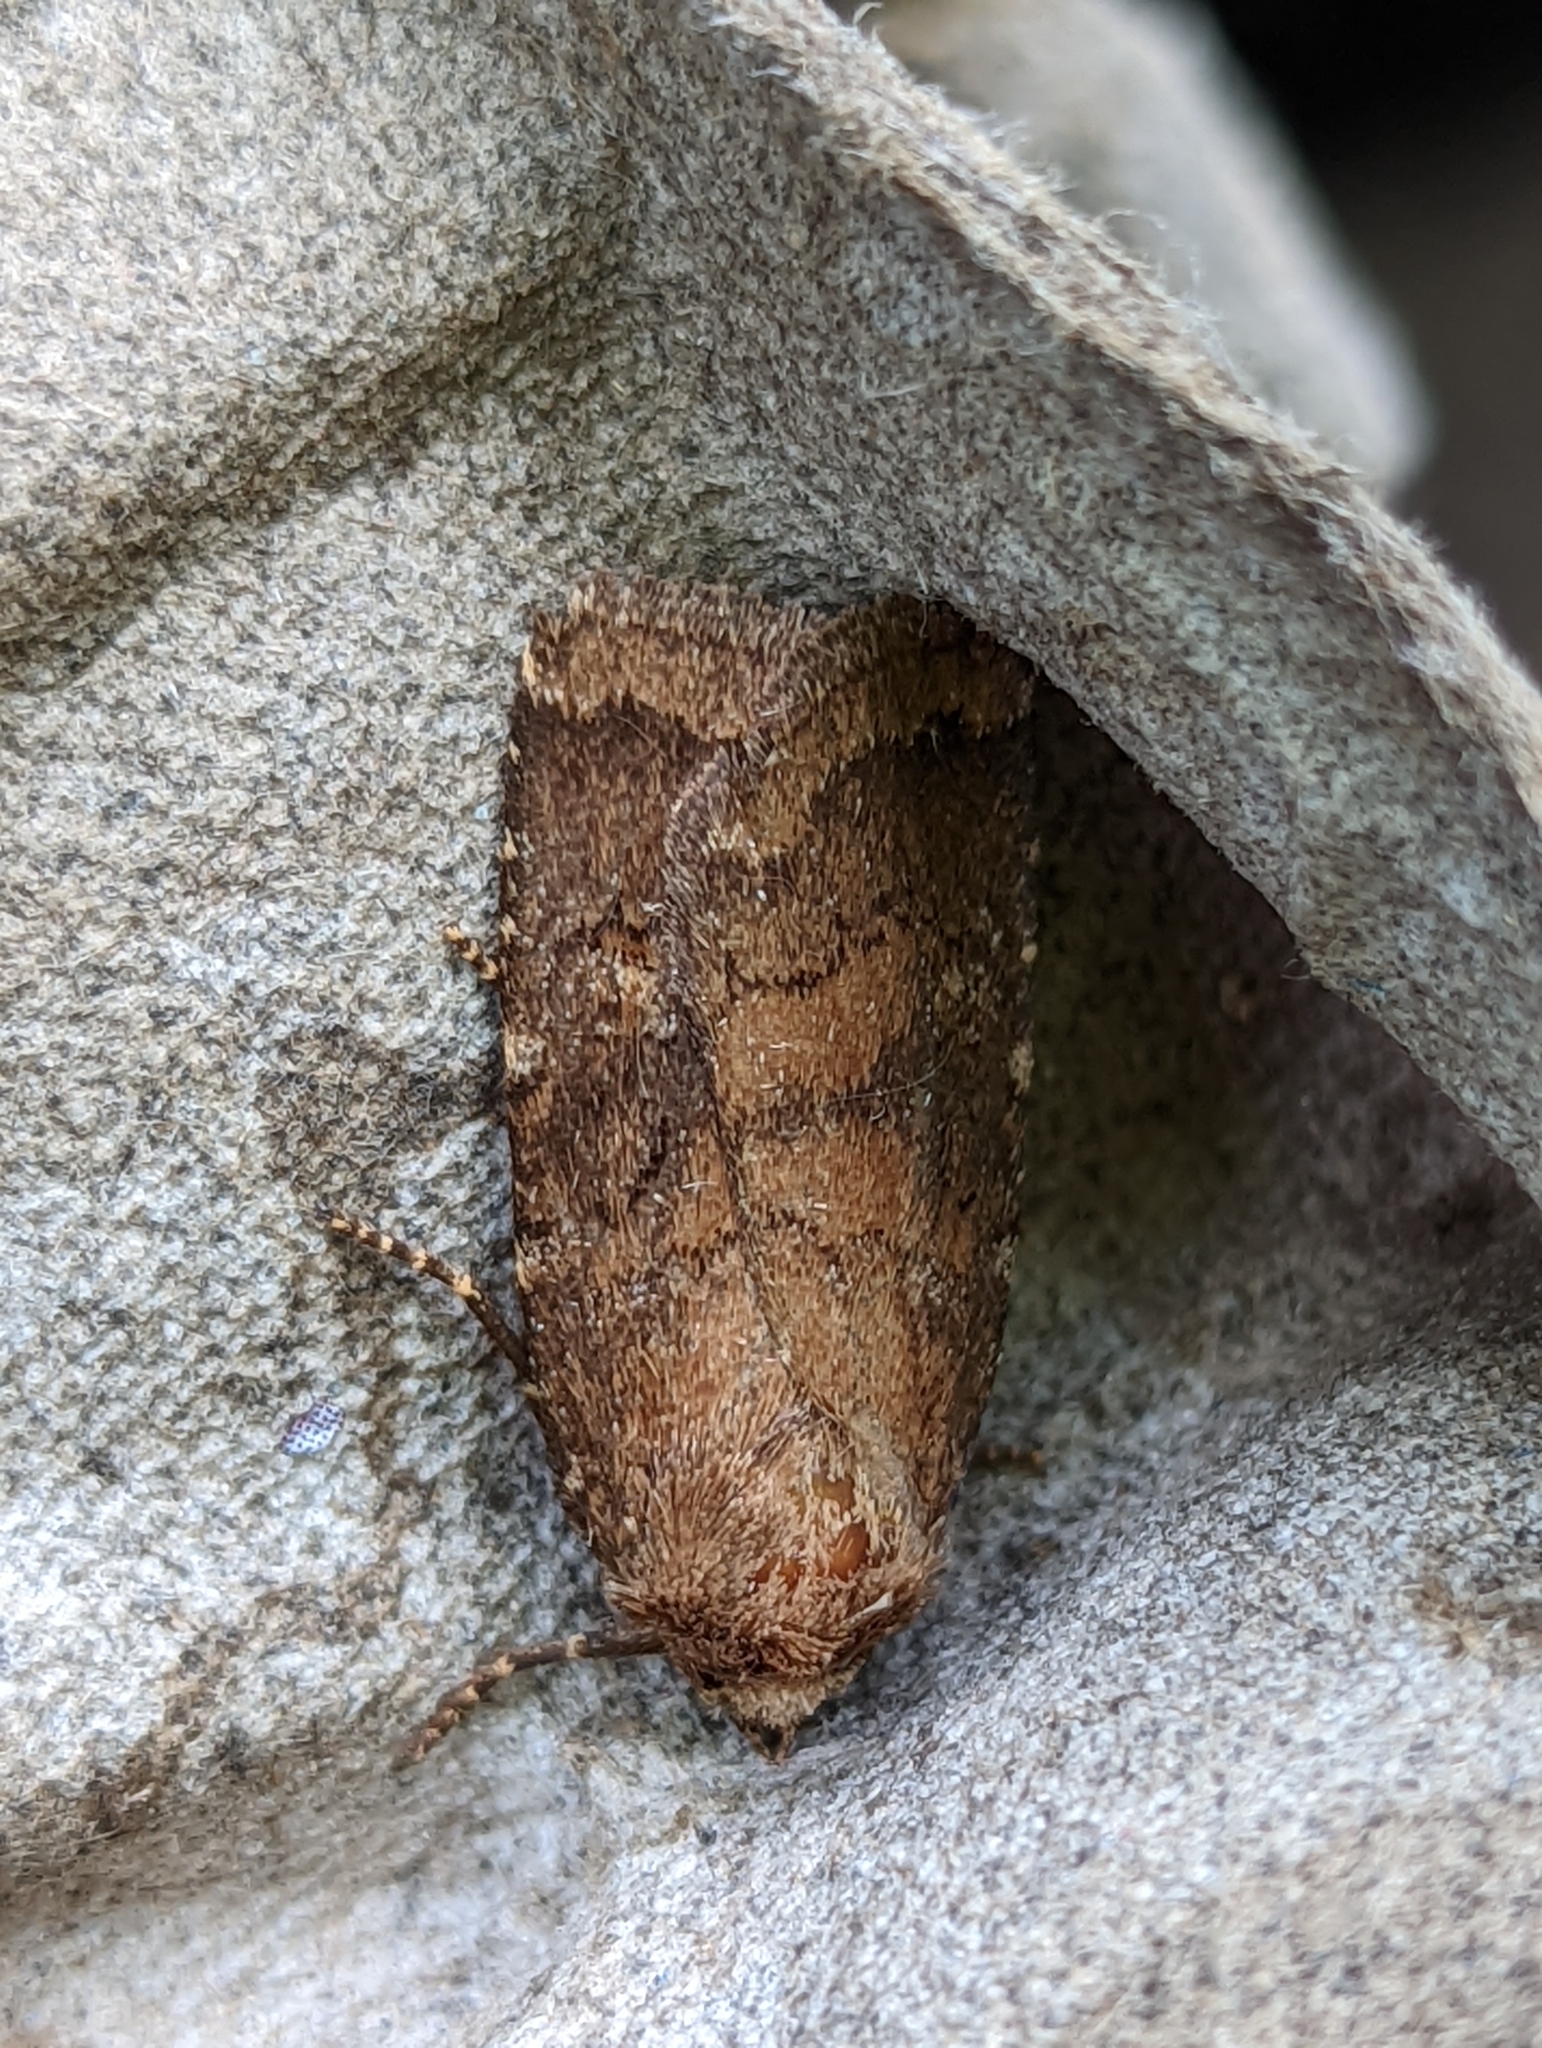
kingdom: Animalia
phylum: Arthropoda
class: Insecta
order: Lepidoptera
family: Noctuidae
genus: Charanyca
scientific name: Charanyca ferruginea
